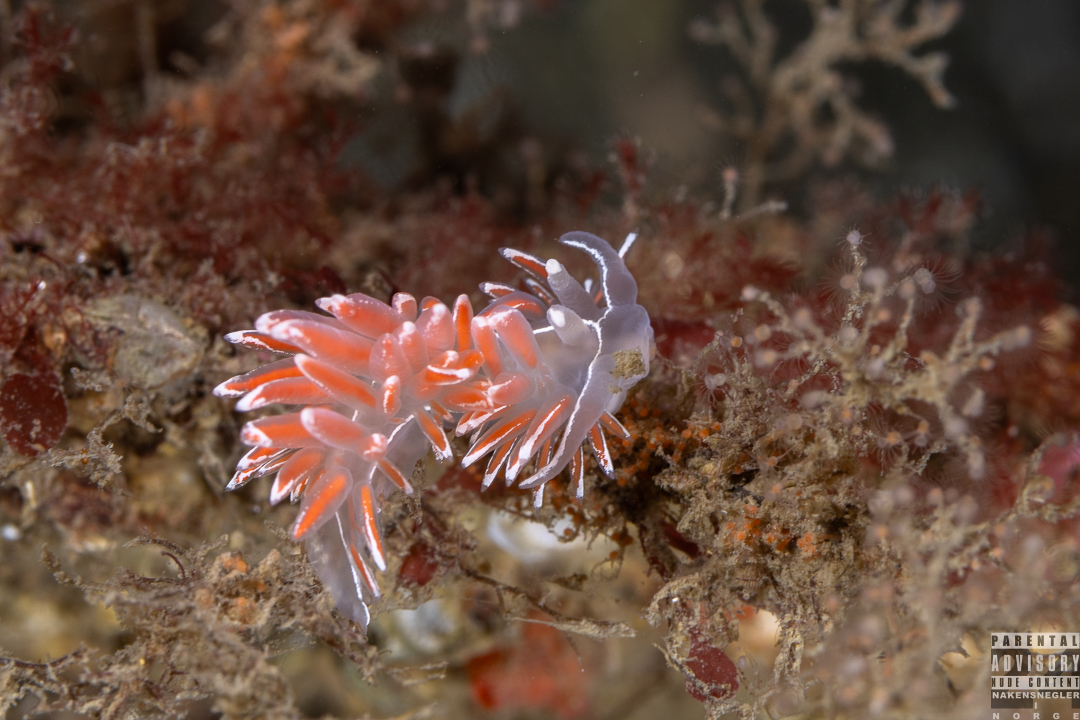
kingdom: Animalia
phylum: Mollusca
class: Gastropoda
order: Nudibranchia
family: Coryphellidae
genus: Coryphella
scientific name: Coryphella lineata
